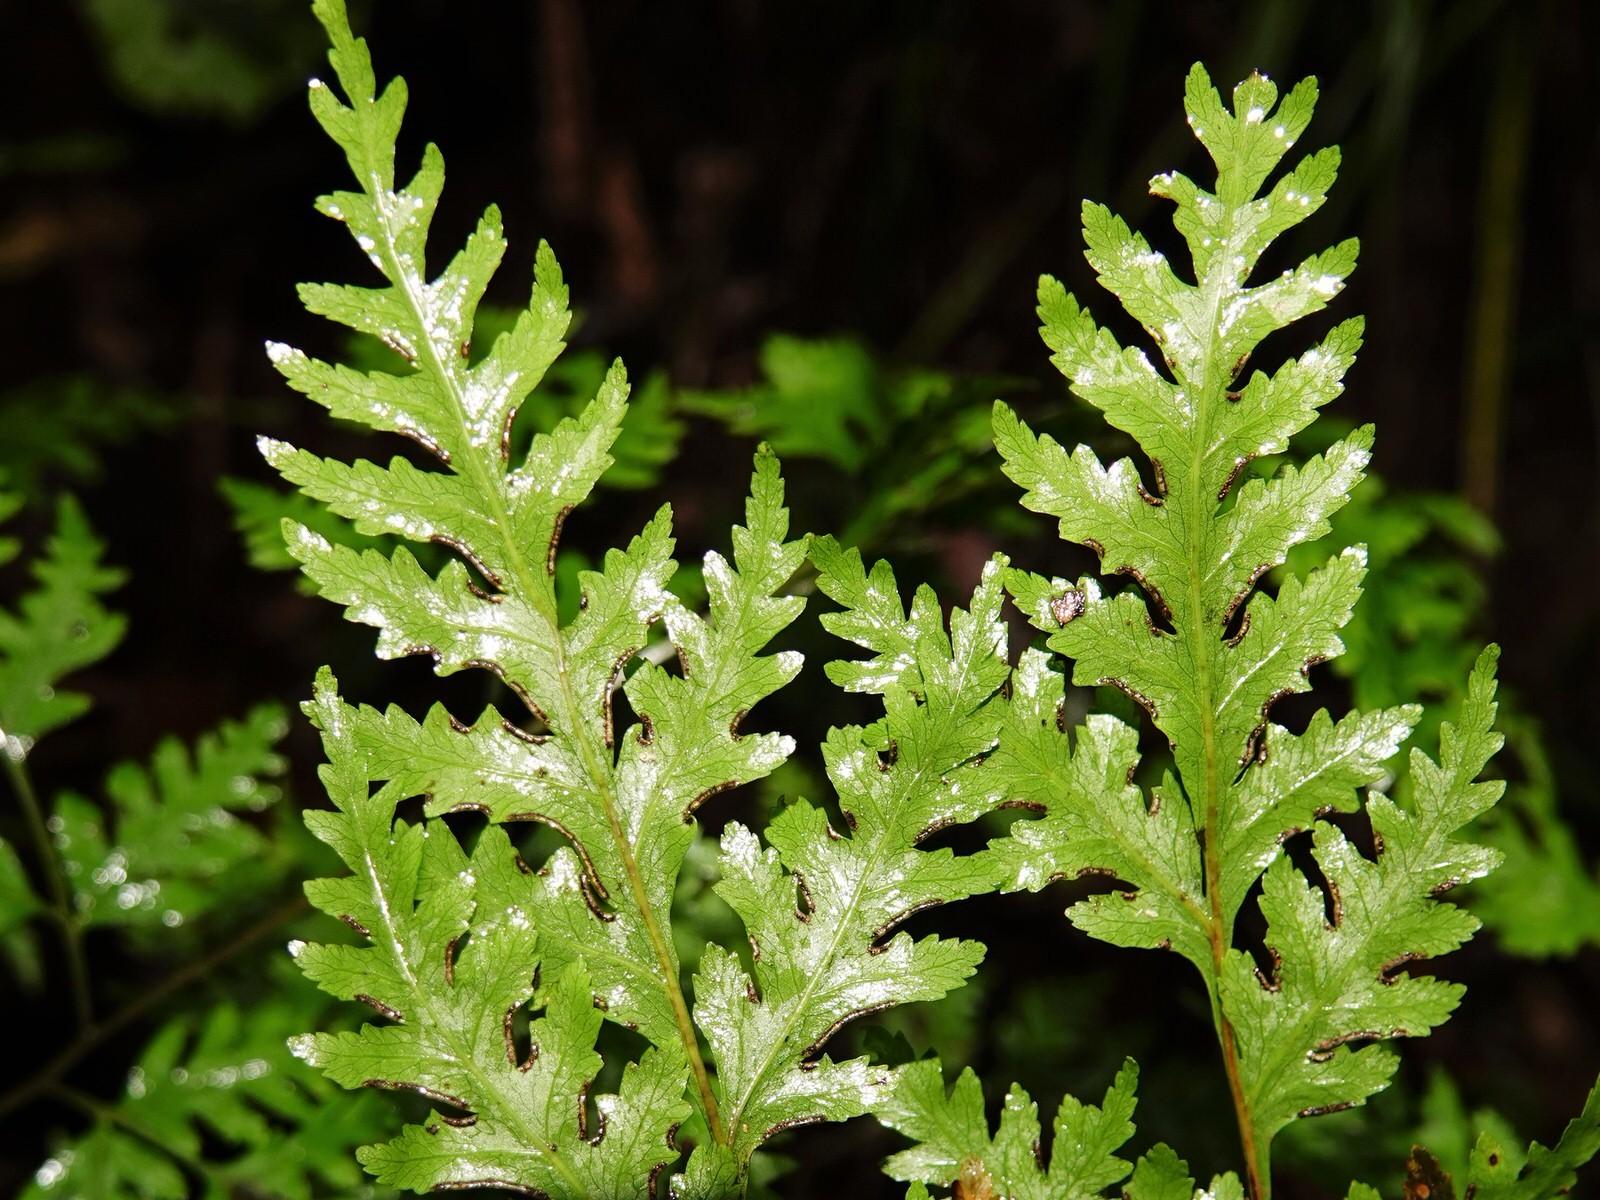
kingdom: Plantae
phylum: Tracheophyta
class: Polypodiopsida
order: Polypodiales
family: Pteridaceae
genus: Pteris
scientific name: Pteris macilenta
